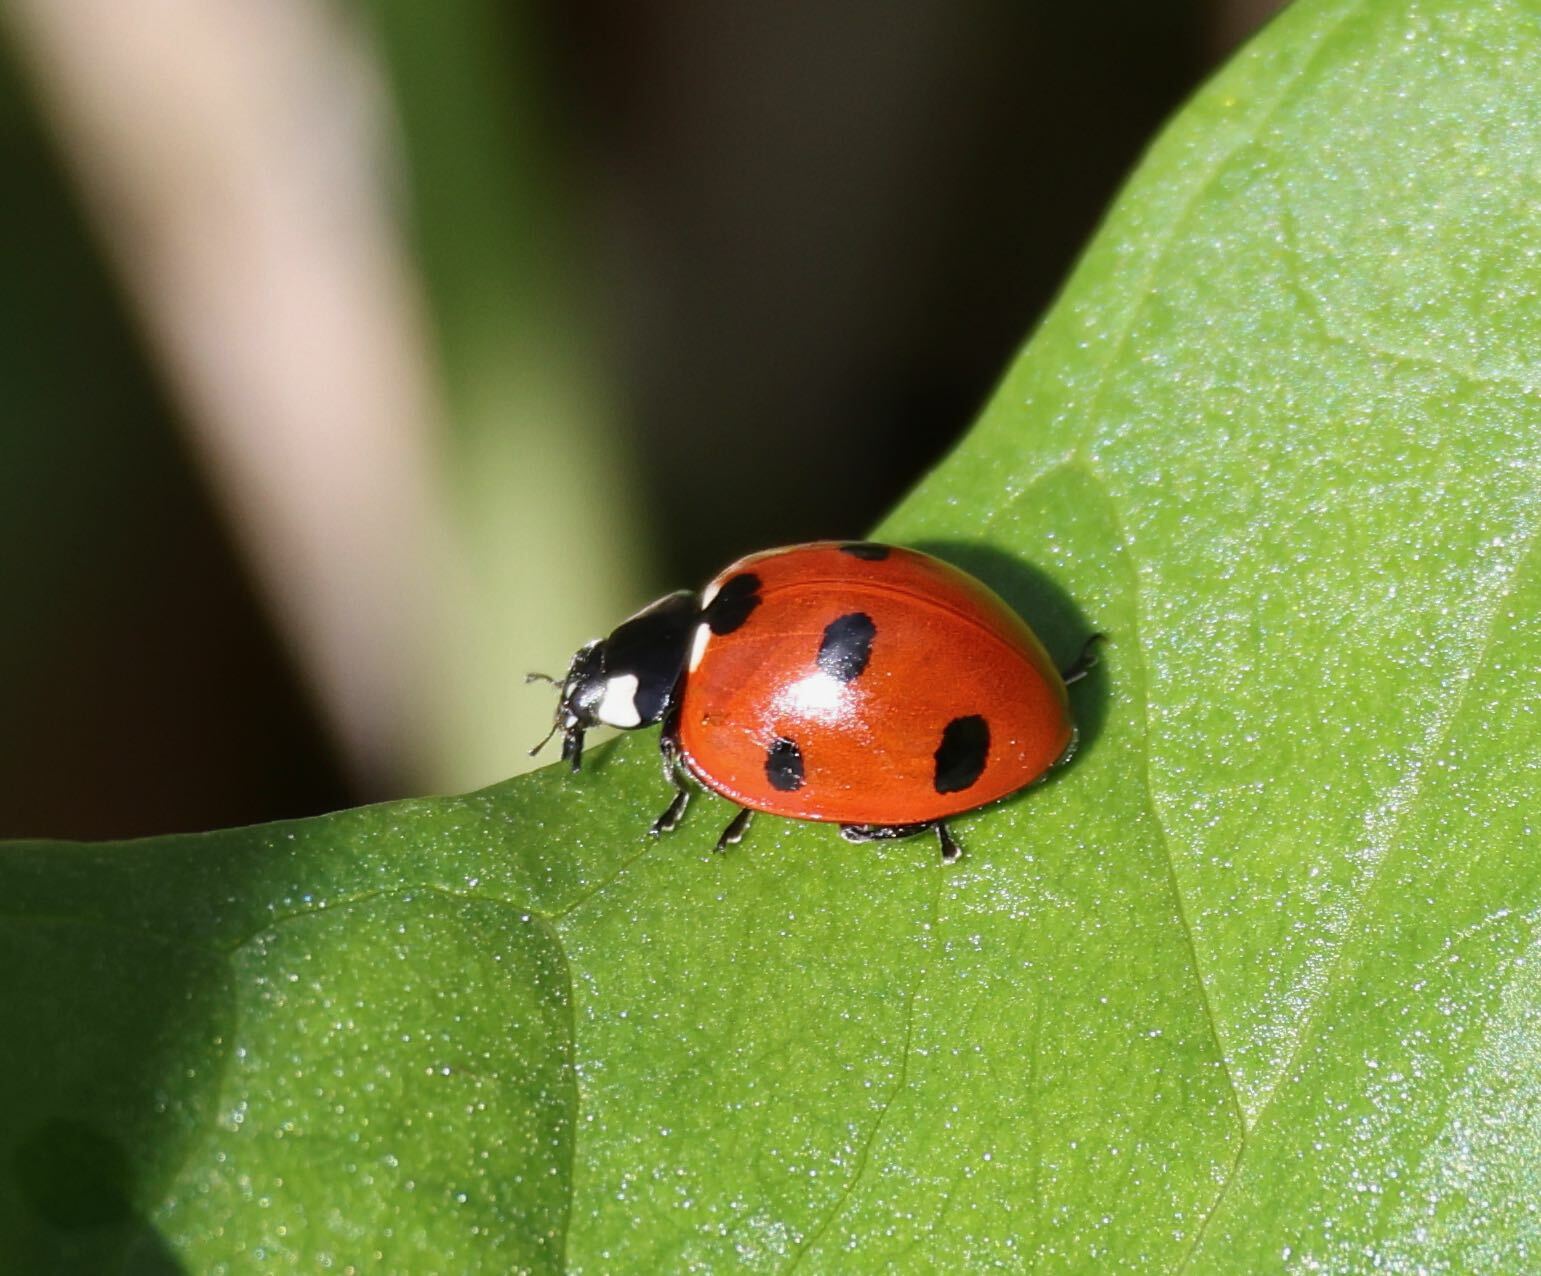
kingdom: Animalia
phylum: Arthropoda
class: Insecta
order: Coleoptera
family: Coccinellidae
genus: Coccinella
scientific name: Coccinella septempunctata
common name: Sevenspotted lady beetle
